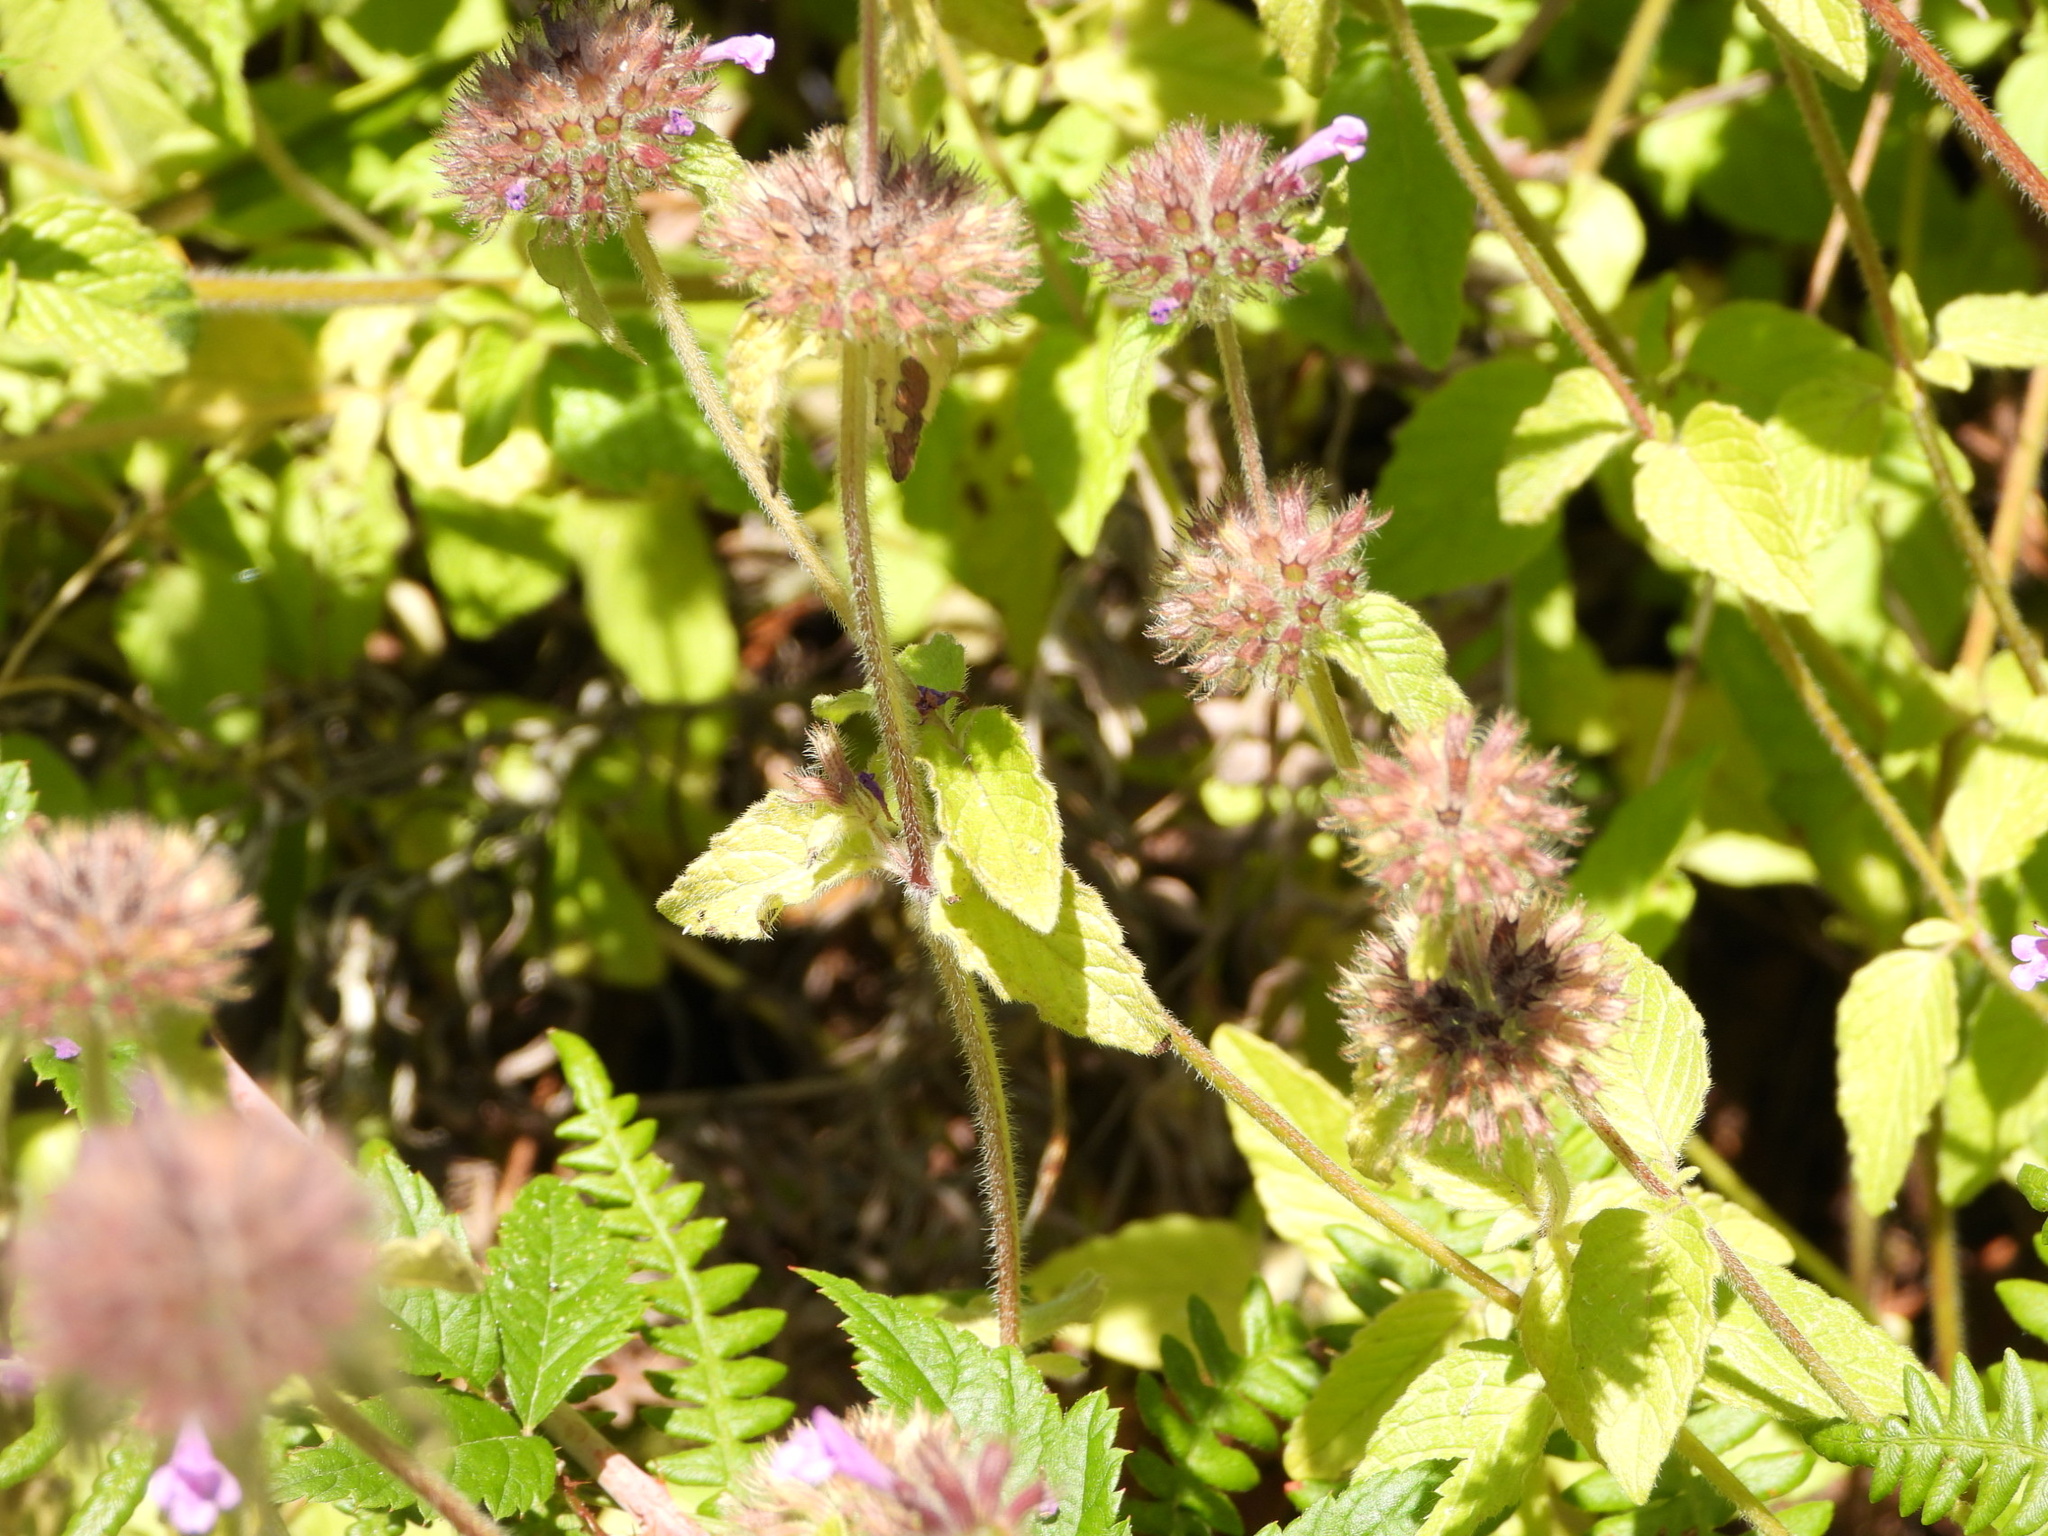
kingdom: Plantae
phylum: Tracheophyta
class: Magnoliopsida
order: Lamiales
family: Lamiaceae
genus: Clinopodium
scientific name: Clinopodium vulgare
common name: Wild basil
